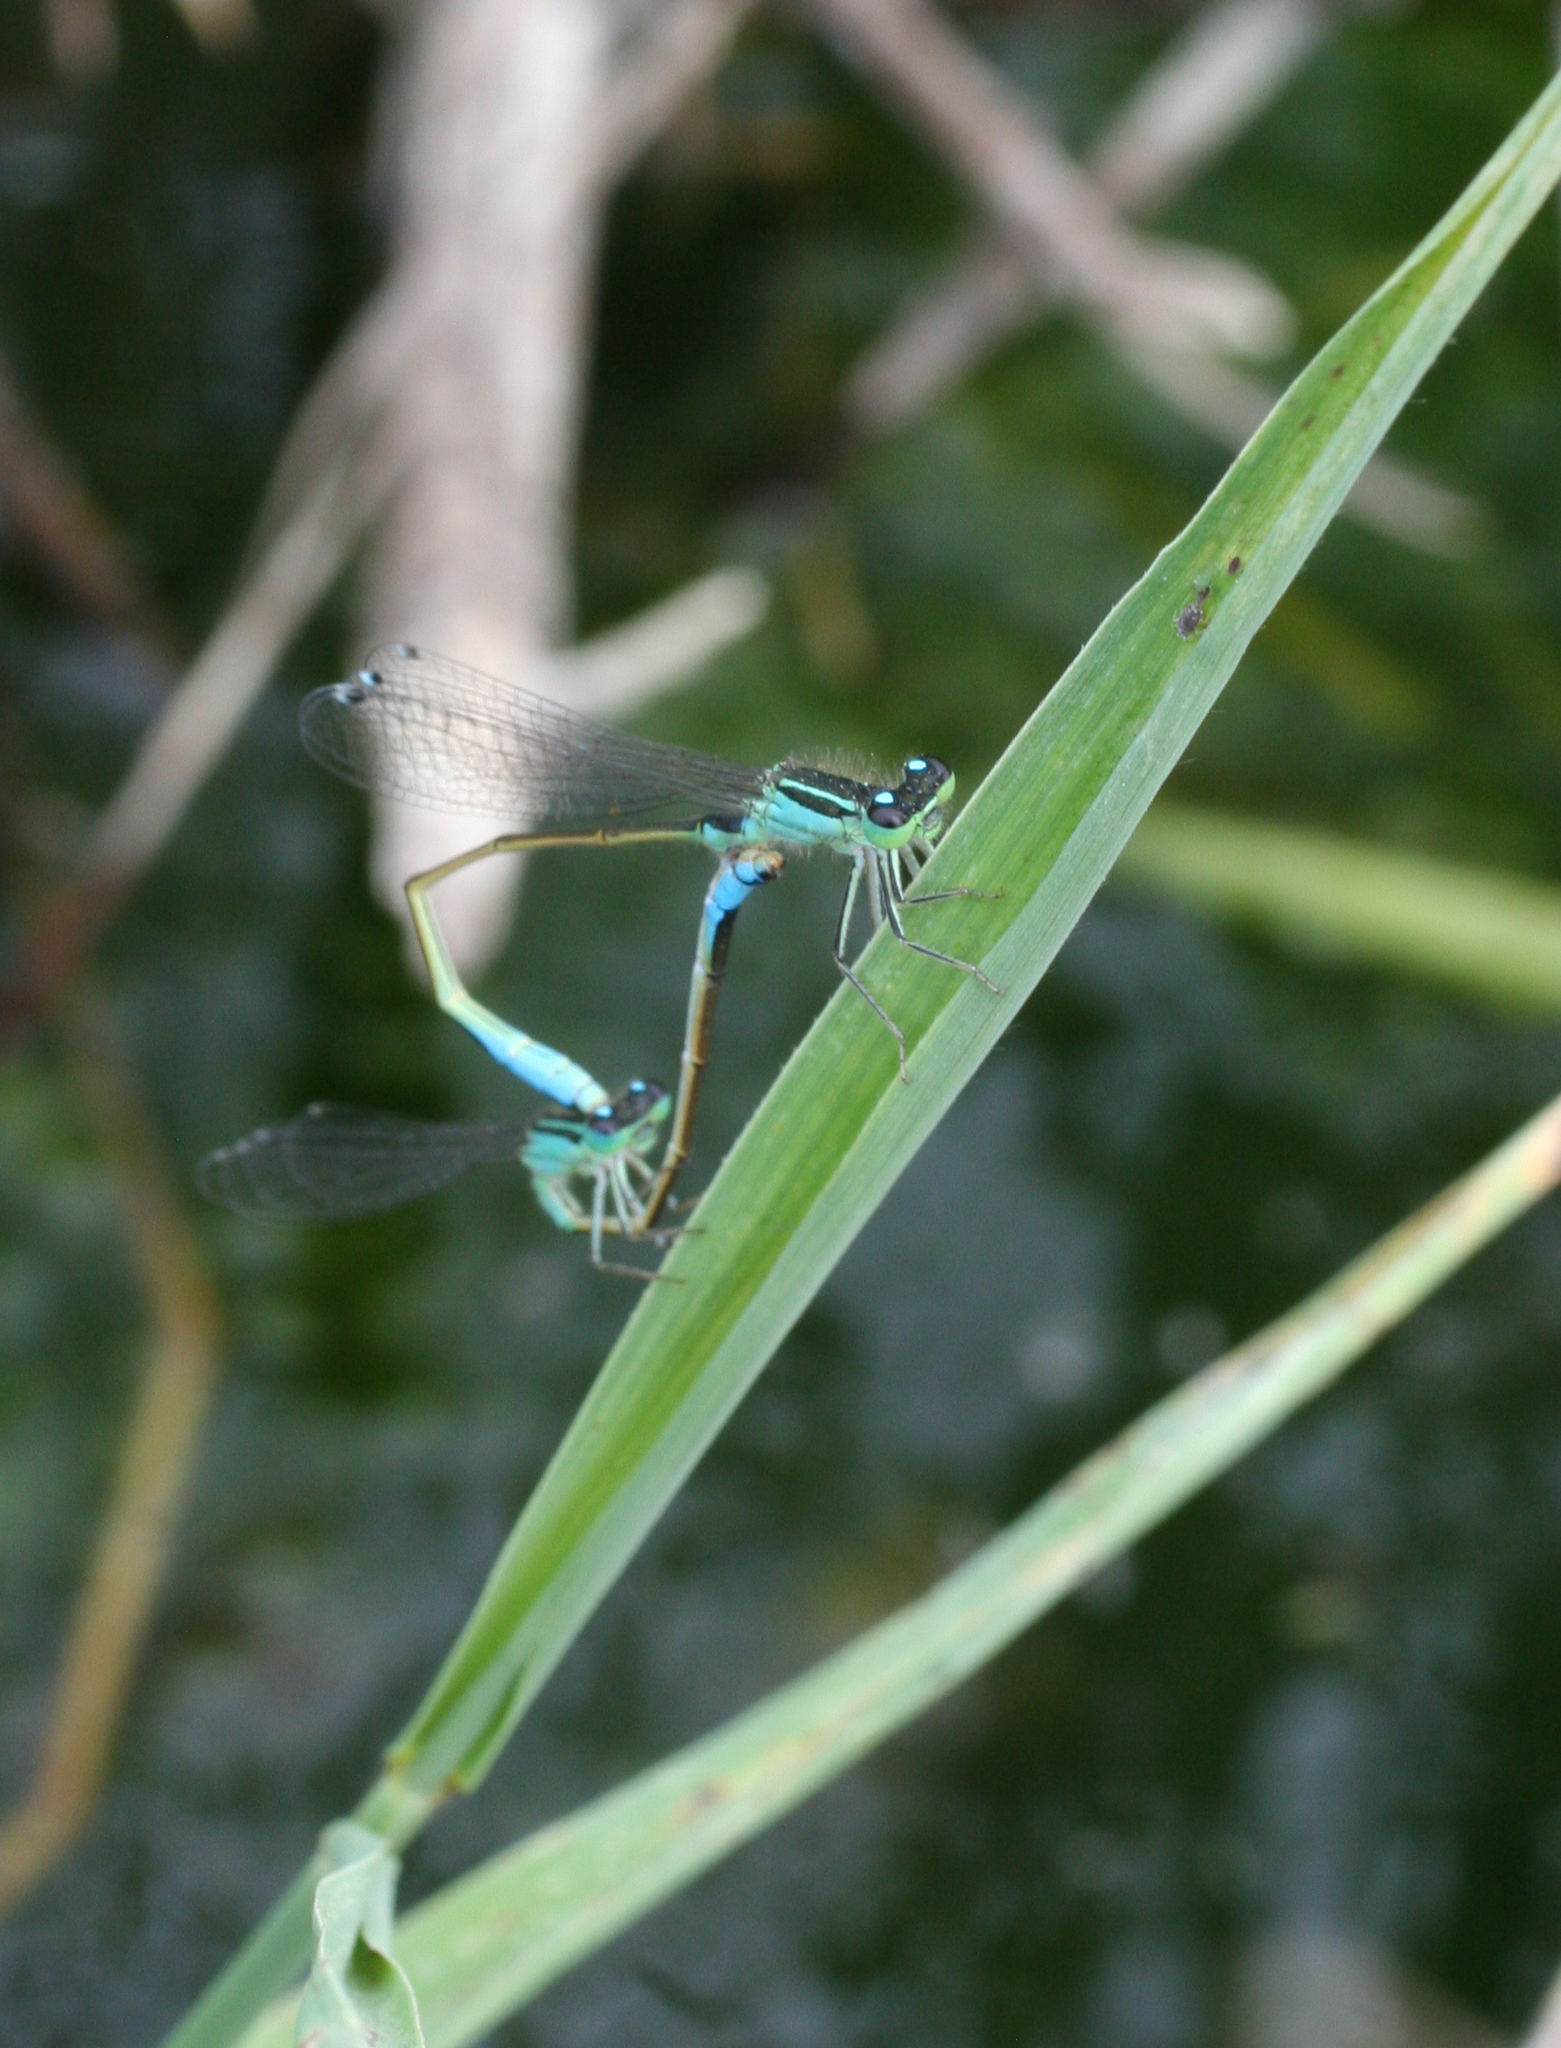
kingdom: Animalia
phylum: Arthropoda
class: Insecta
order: Odonata
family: Coenagrionidae
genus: Ischnura
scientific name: Ischnura elegans
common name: Blue-tailed damselfly
